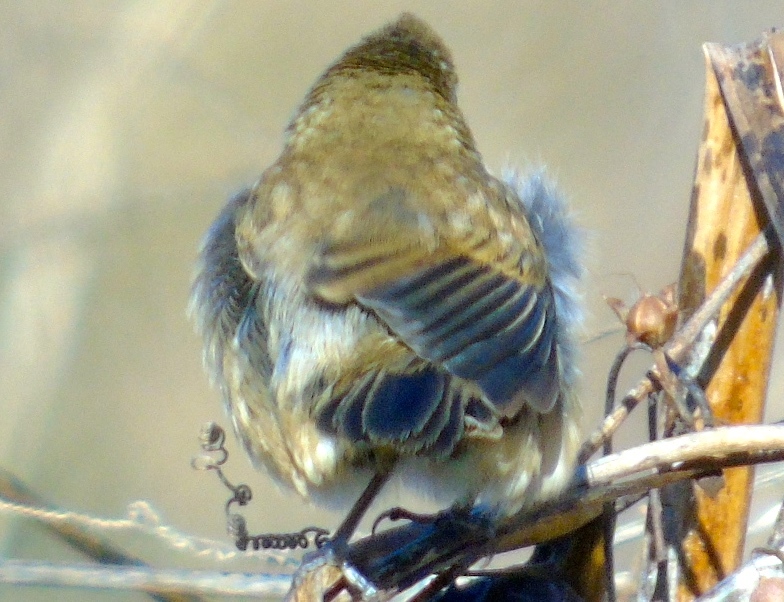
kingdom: Animalia
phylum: Chordata
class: Aves
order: Passeriformes
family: Thraupidae
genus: Volatinia
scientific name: Volatinia jacarina
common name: Blue-black grassquit
